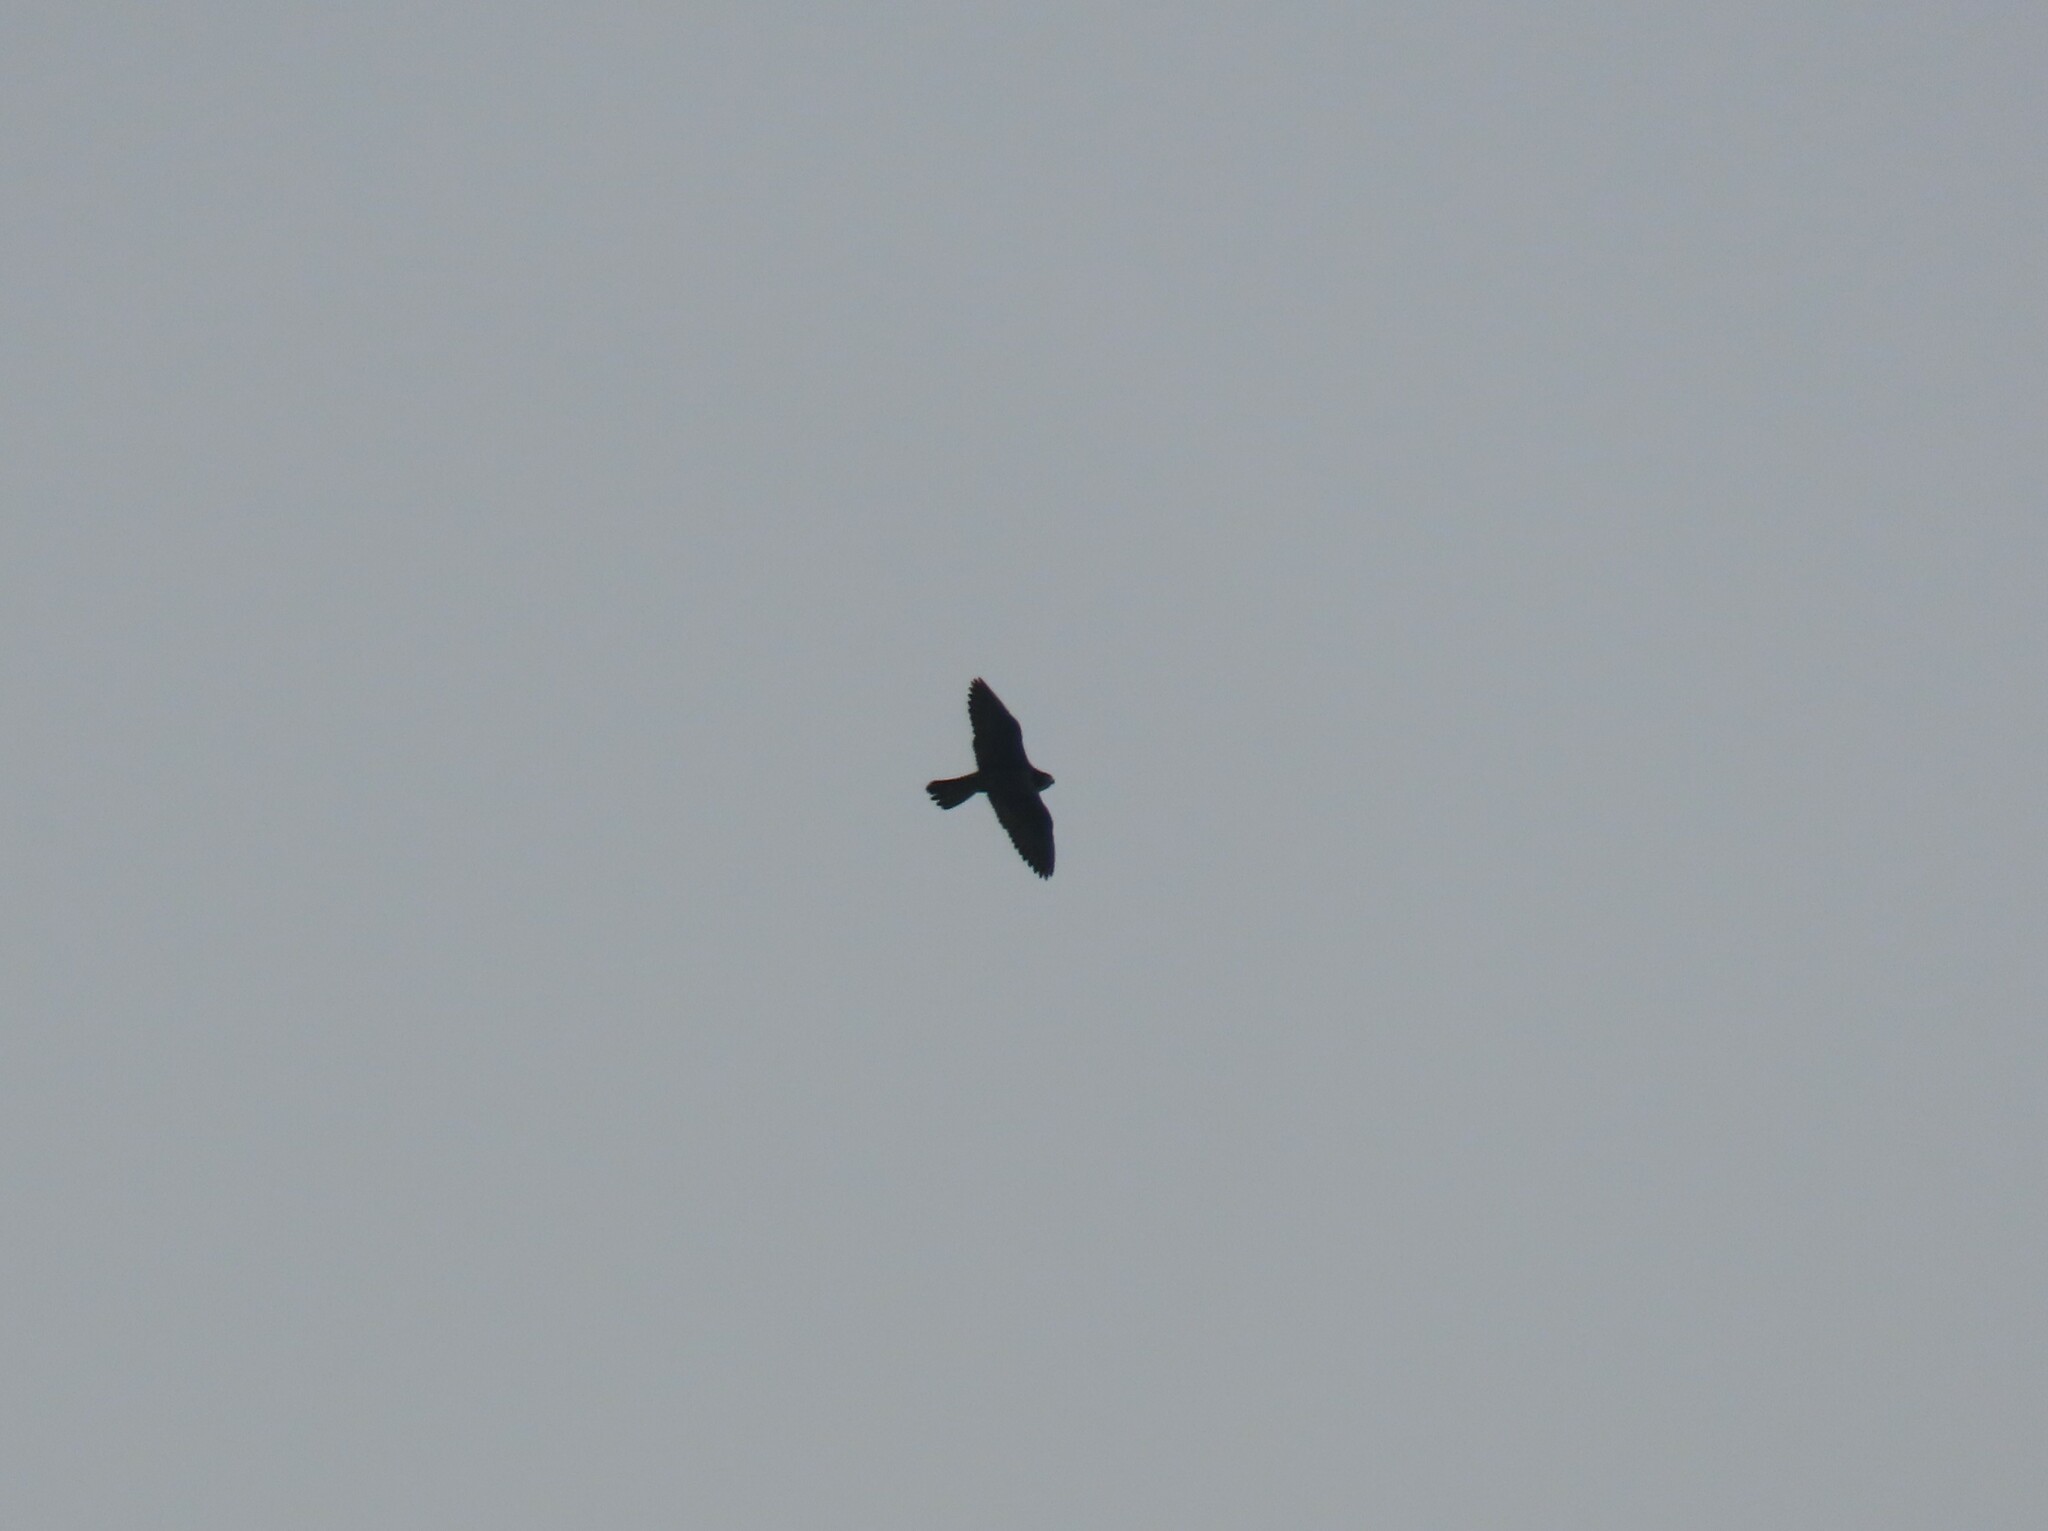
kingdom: Animalia
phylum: Chordata
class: Aves
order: Falconiformes
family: Falconidae
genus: Falco
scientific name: Falco peregrinus
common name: Peregrine falcon
